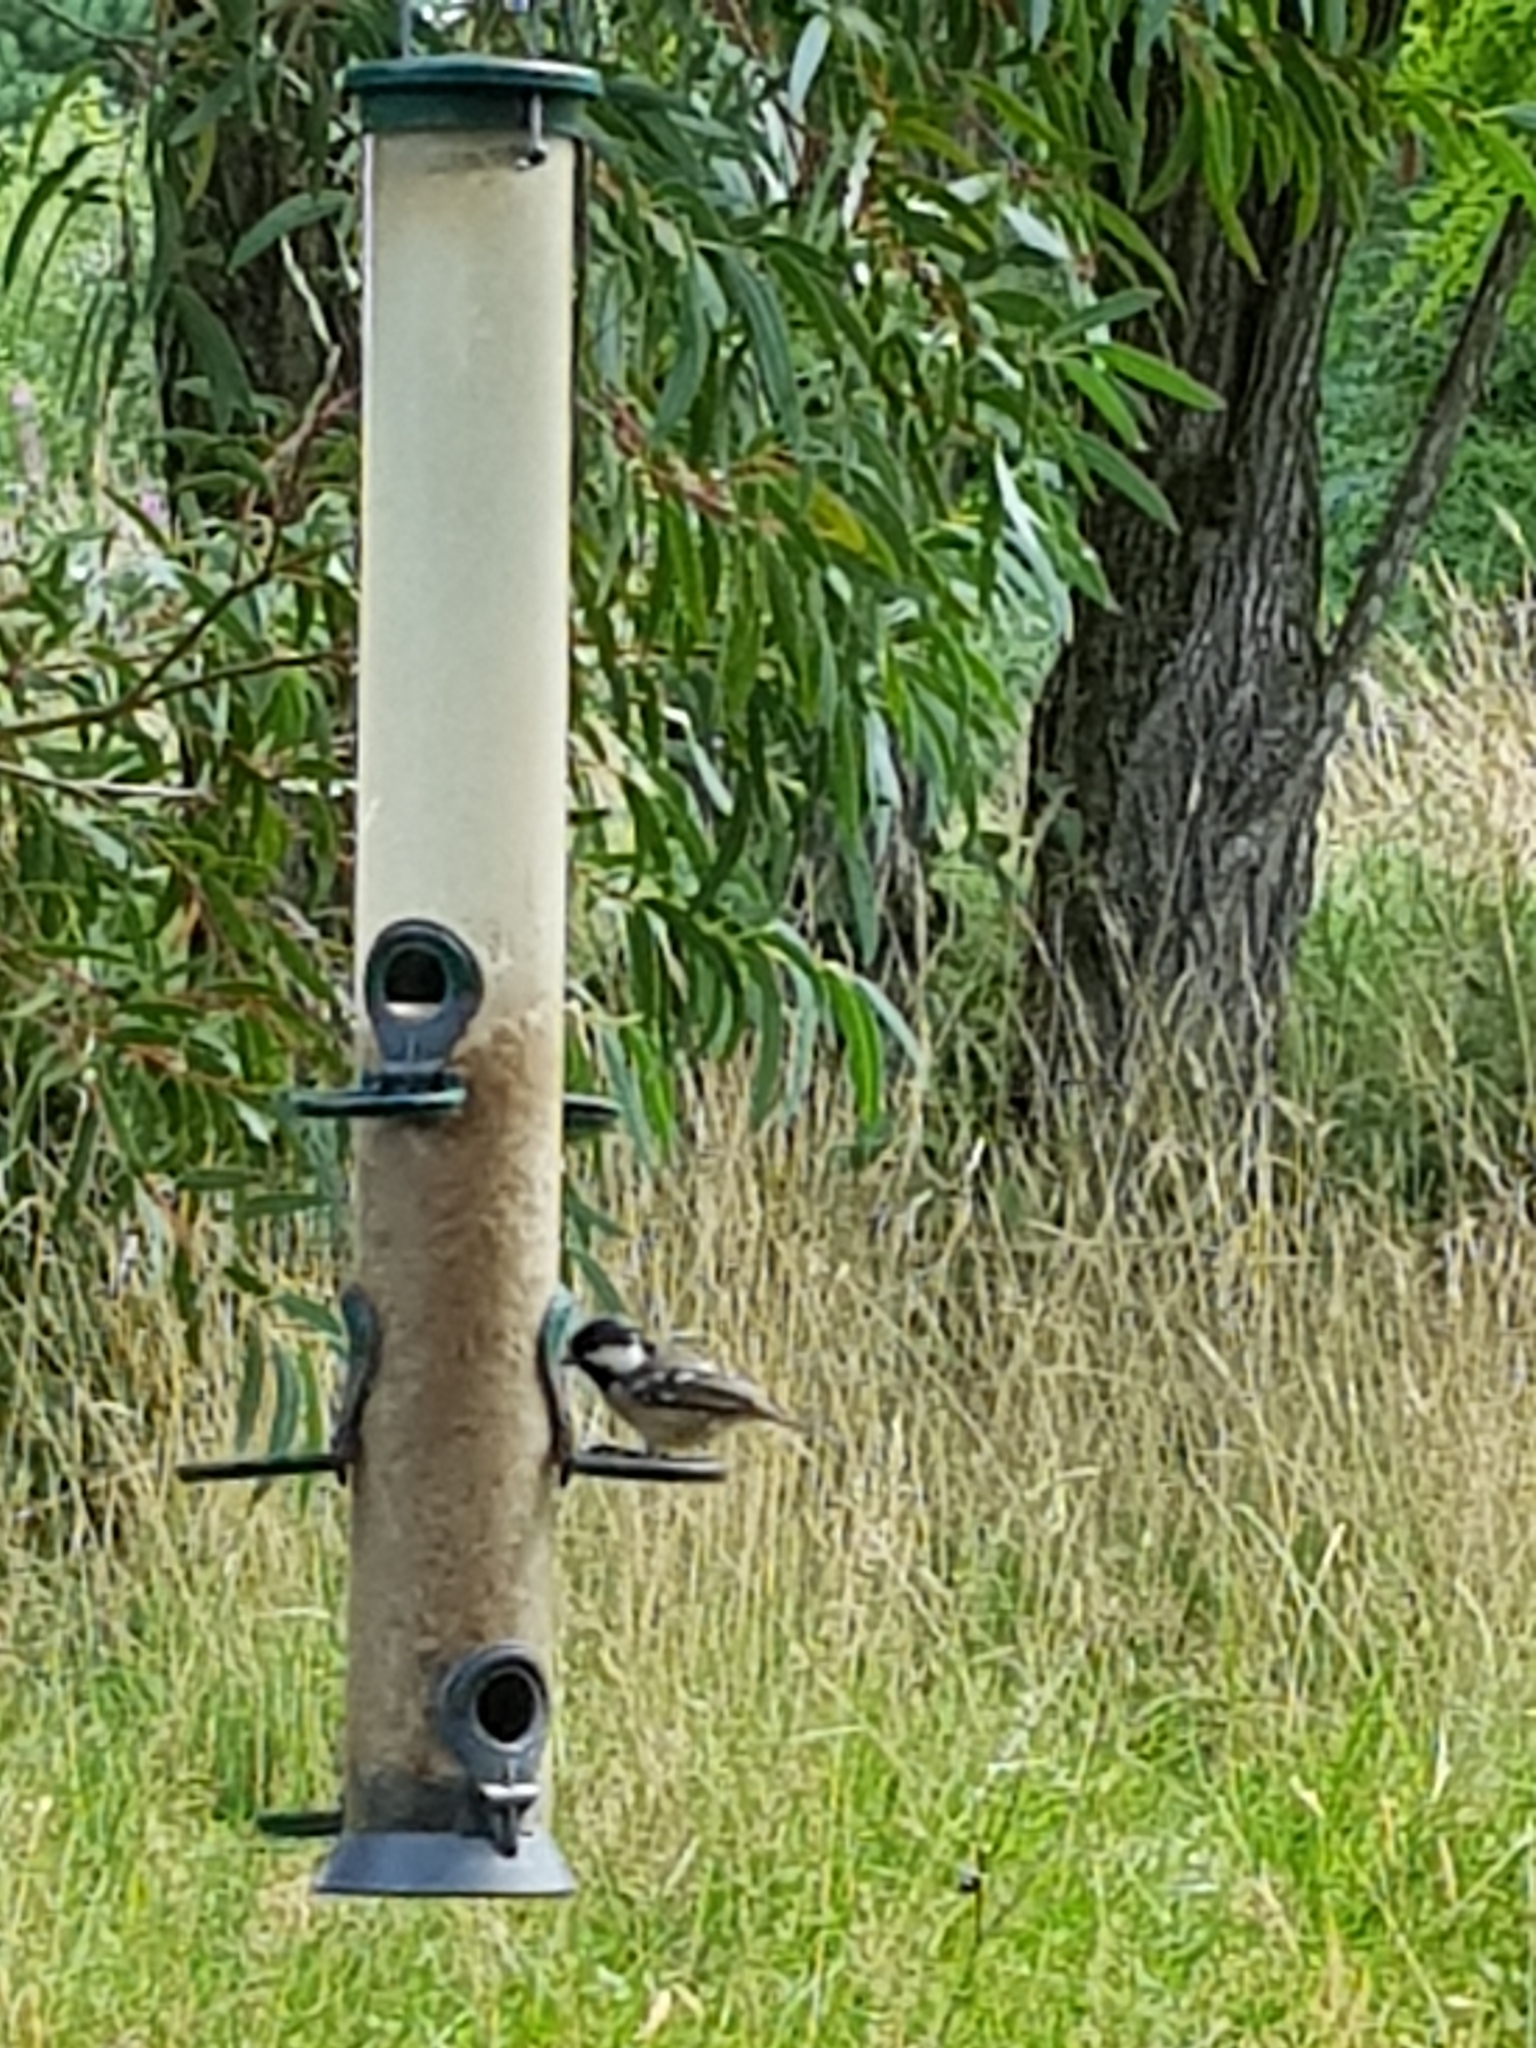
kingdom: Animalia
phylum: Chordata
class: Aves
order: Passeriformes
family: Paridae
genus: Periparus
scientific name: Periparus ater
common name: Coal tit
